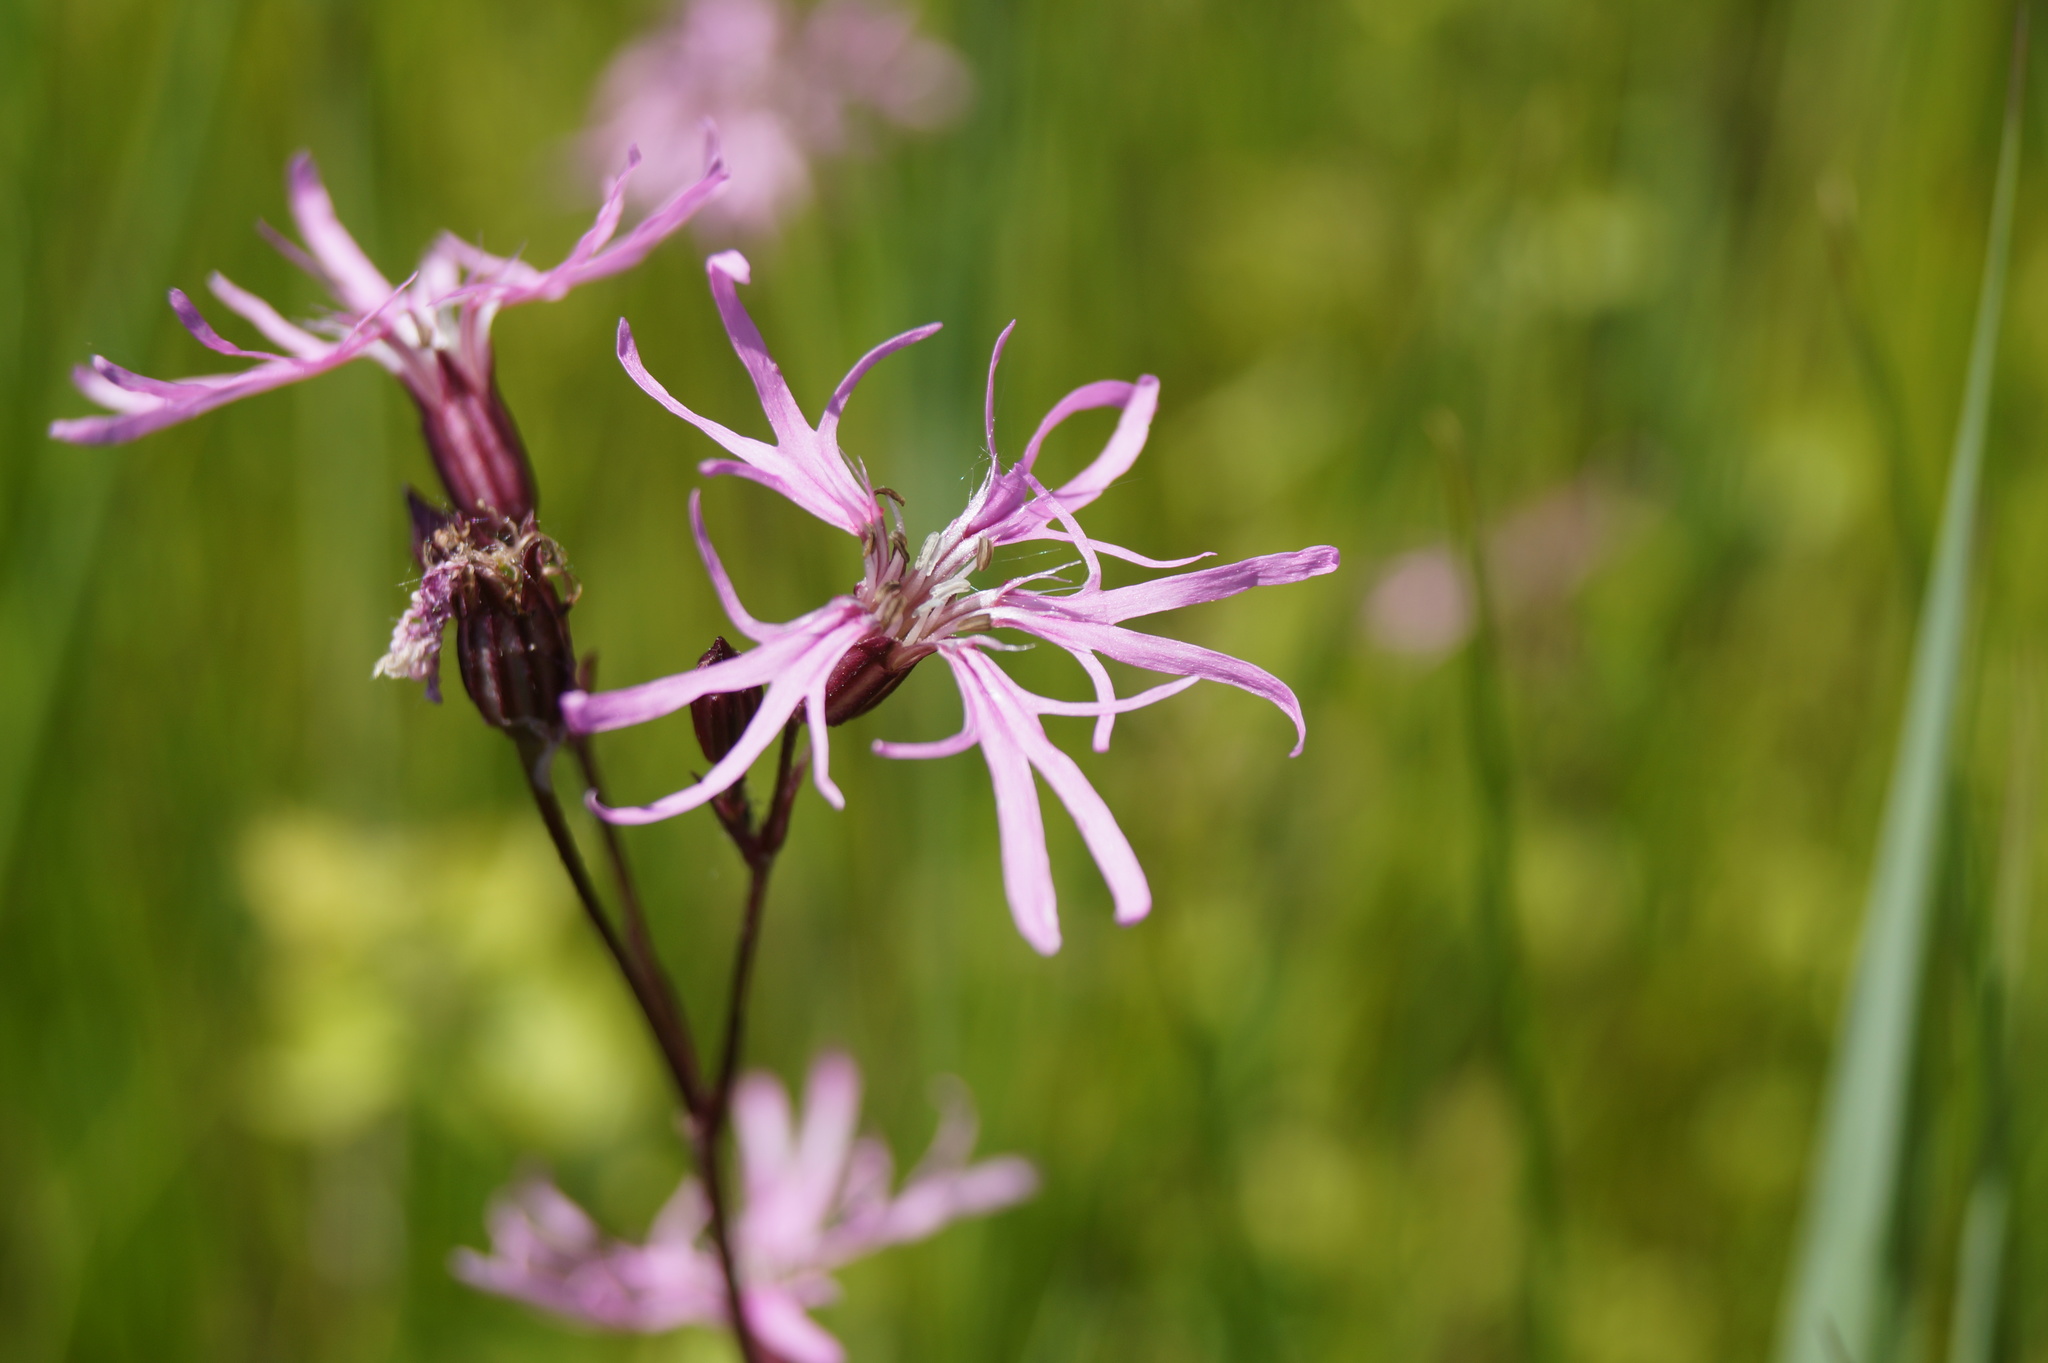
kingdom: Plantae
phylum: Tracheophyta
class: Magnoliopsida
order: Caryophyllales
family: Caryophyllaceae
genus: Silene
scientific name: Silene flos-cuculi
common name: Ragged-robin
